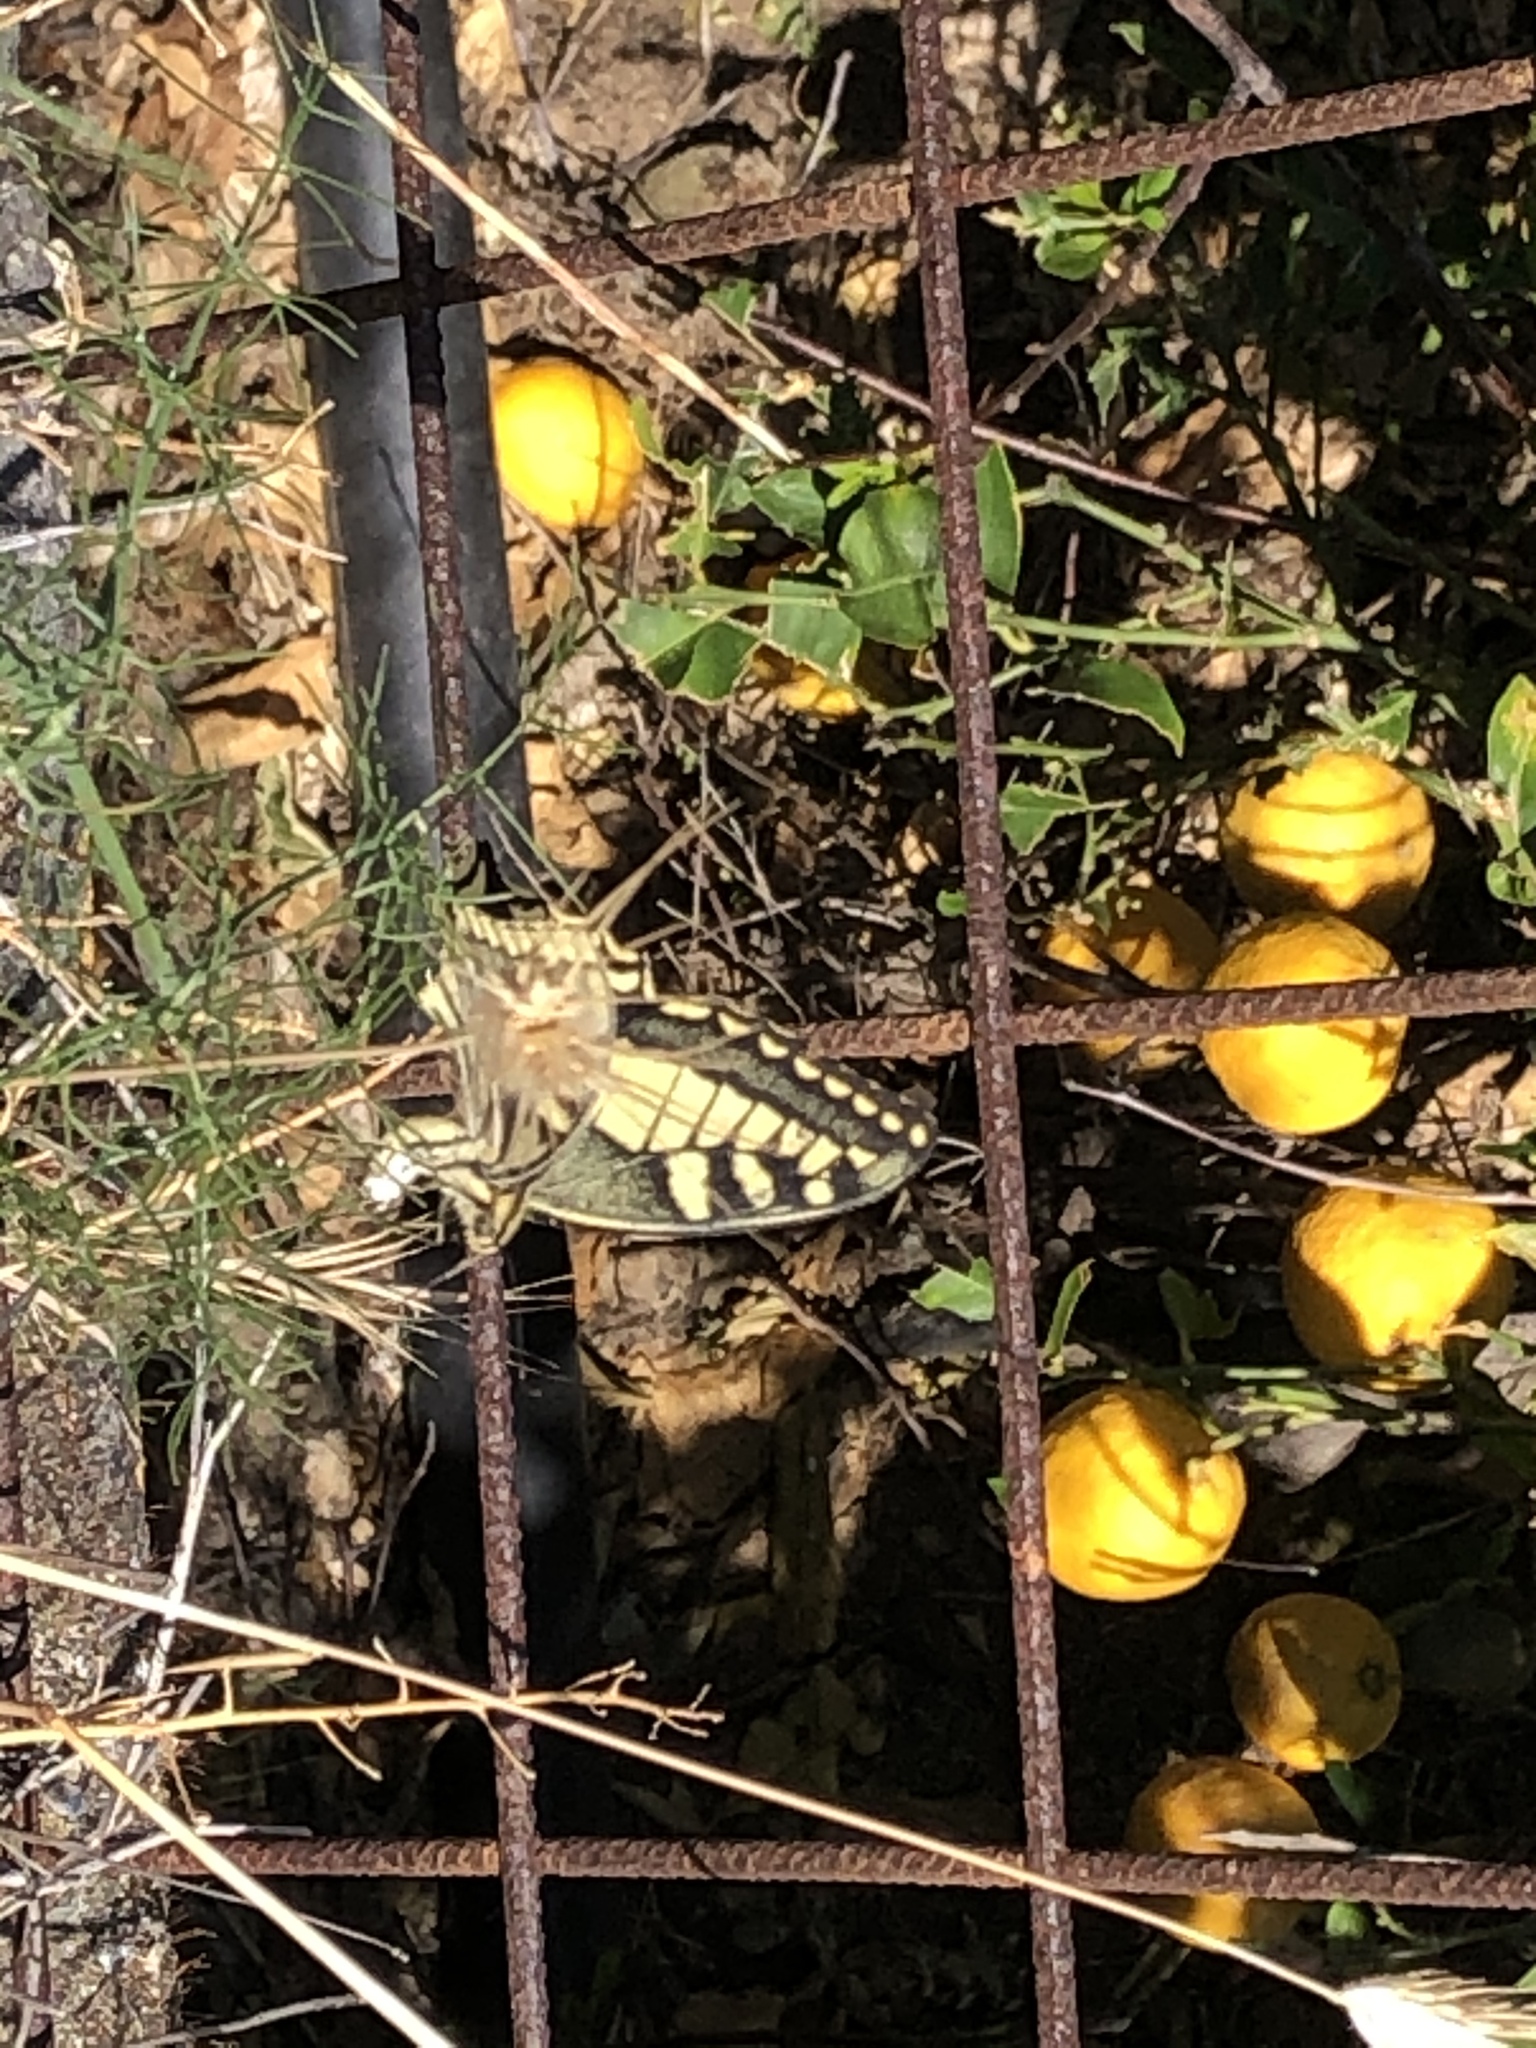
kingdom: Animalia
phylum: Arthropoda
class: Insecta
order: Lepidoptera
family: Papilionidae
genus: Papilio
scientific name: Papilio machaon
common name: Swallowtail
